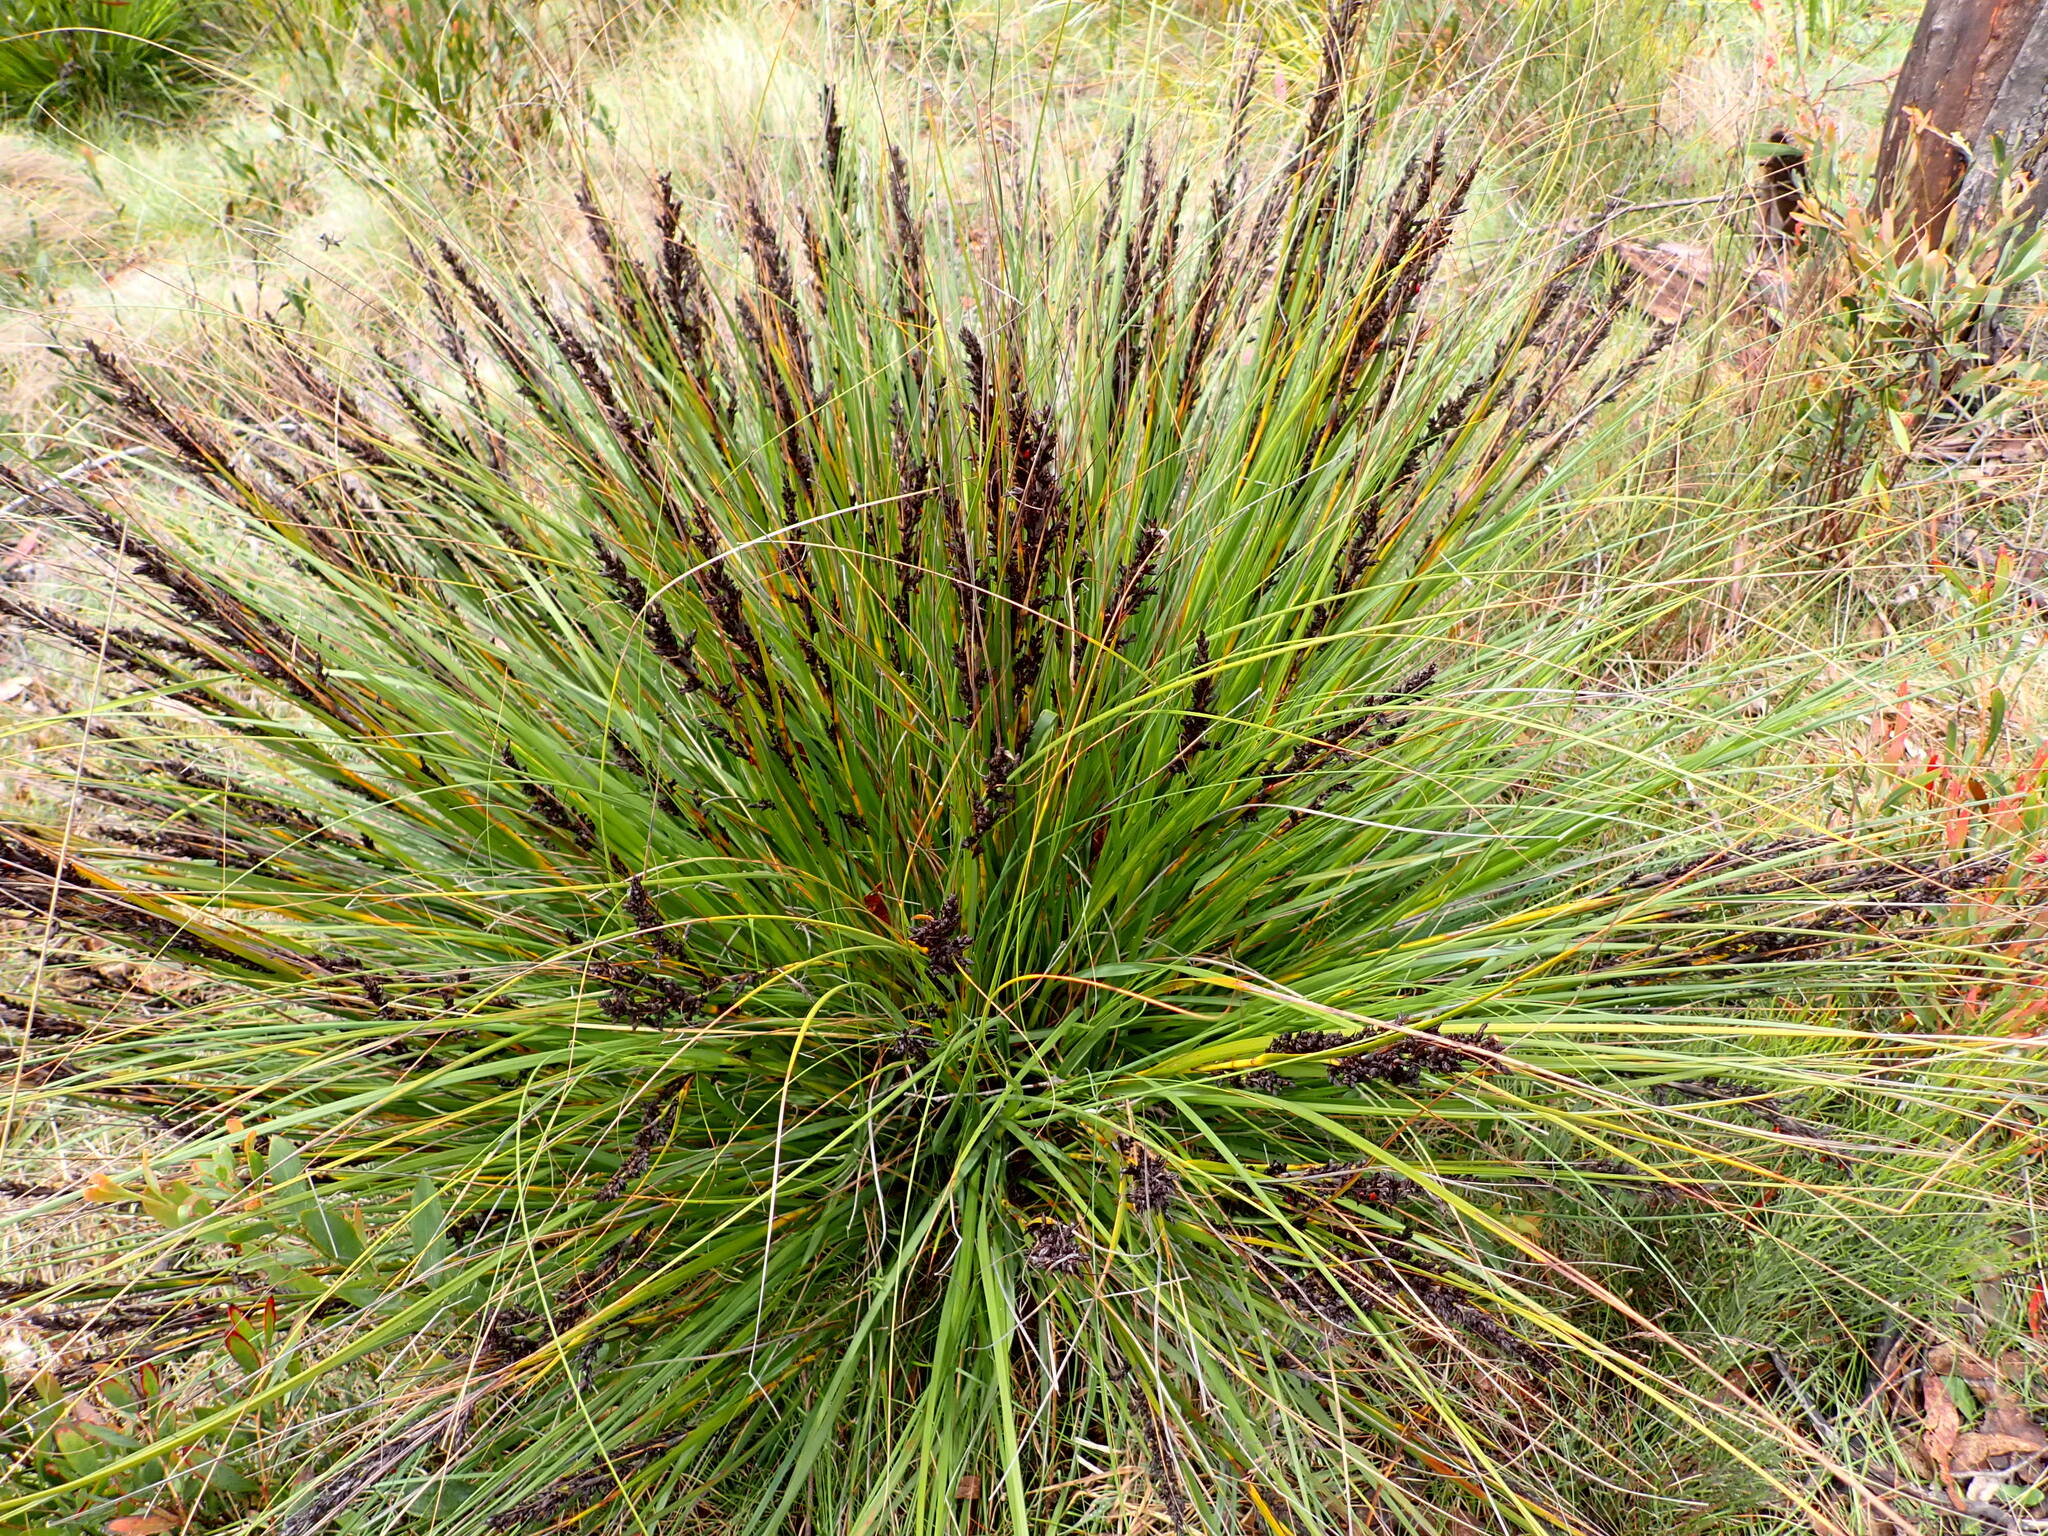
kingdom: Plantae
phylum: Tracheophyta
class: Liliopsida
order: Poales
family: Cyperaceae
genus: Gahnia
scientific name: Gahnia subaequiglumis
